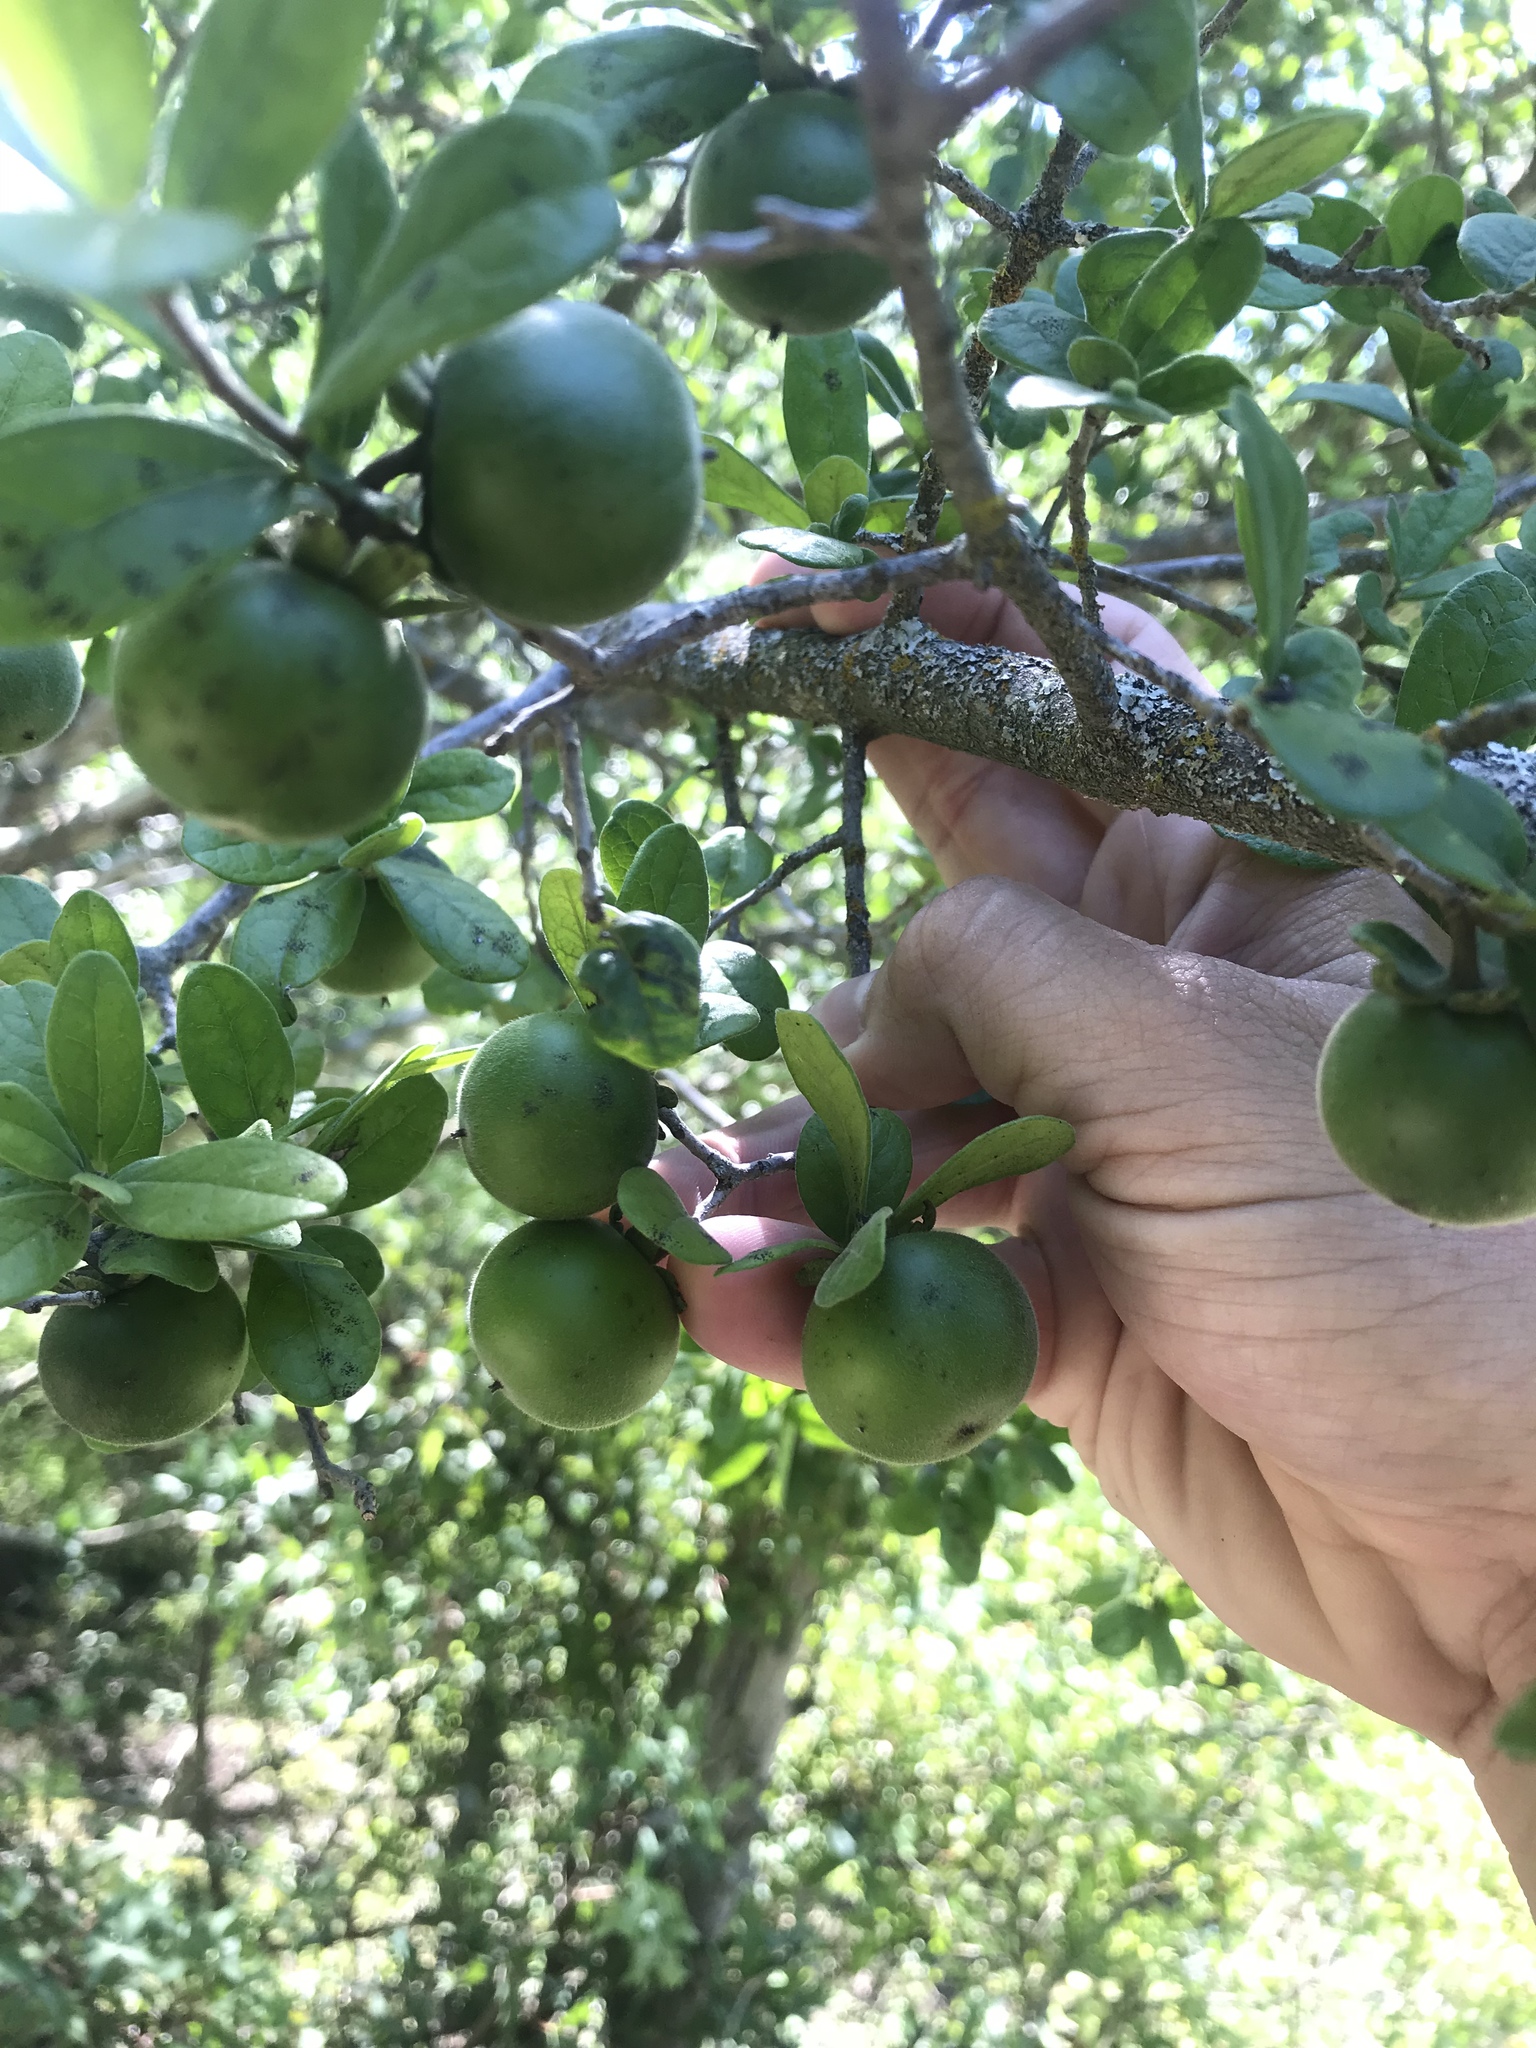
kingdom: Plantae
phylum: Tracheophyta
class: Magnoliopsida
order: Ericales
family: Ebenaceae
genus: Diospyros
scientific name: Diospyros texana
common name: Texas persimmon
